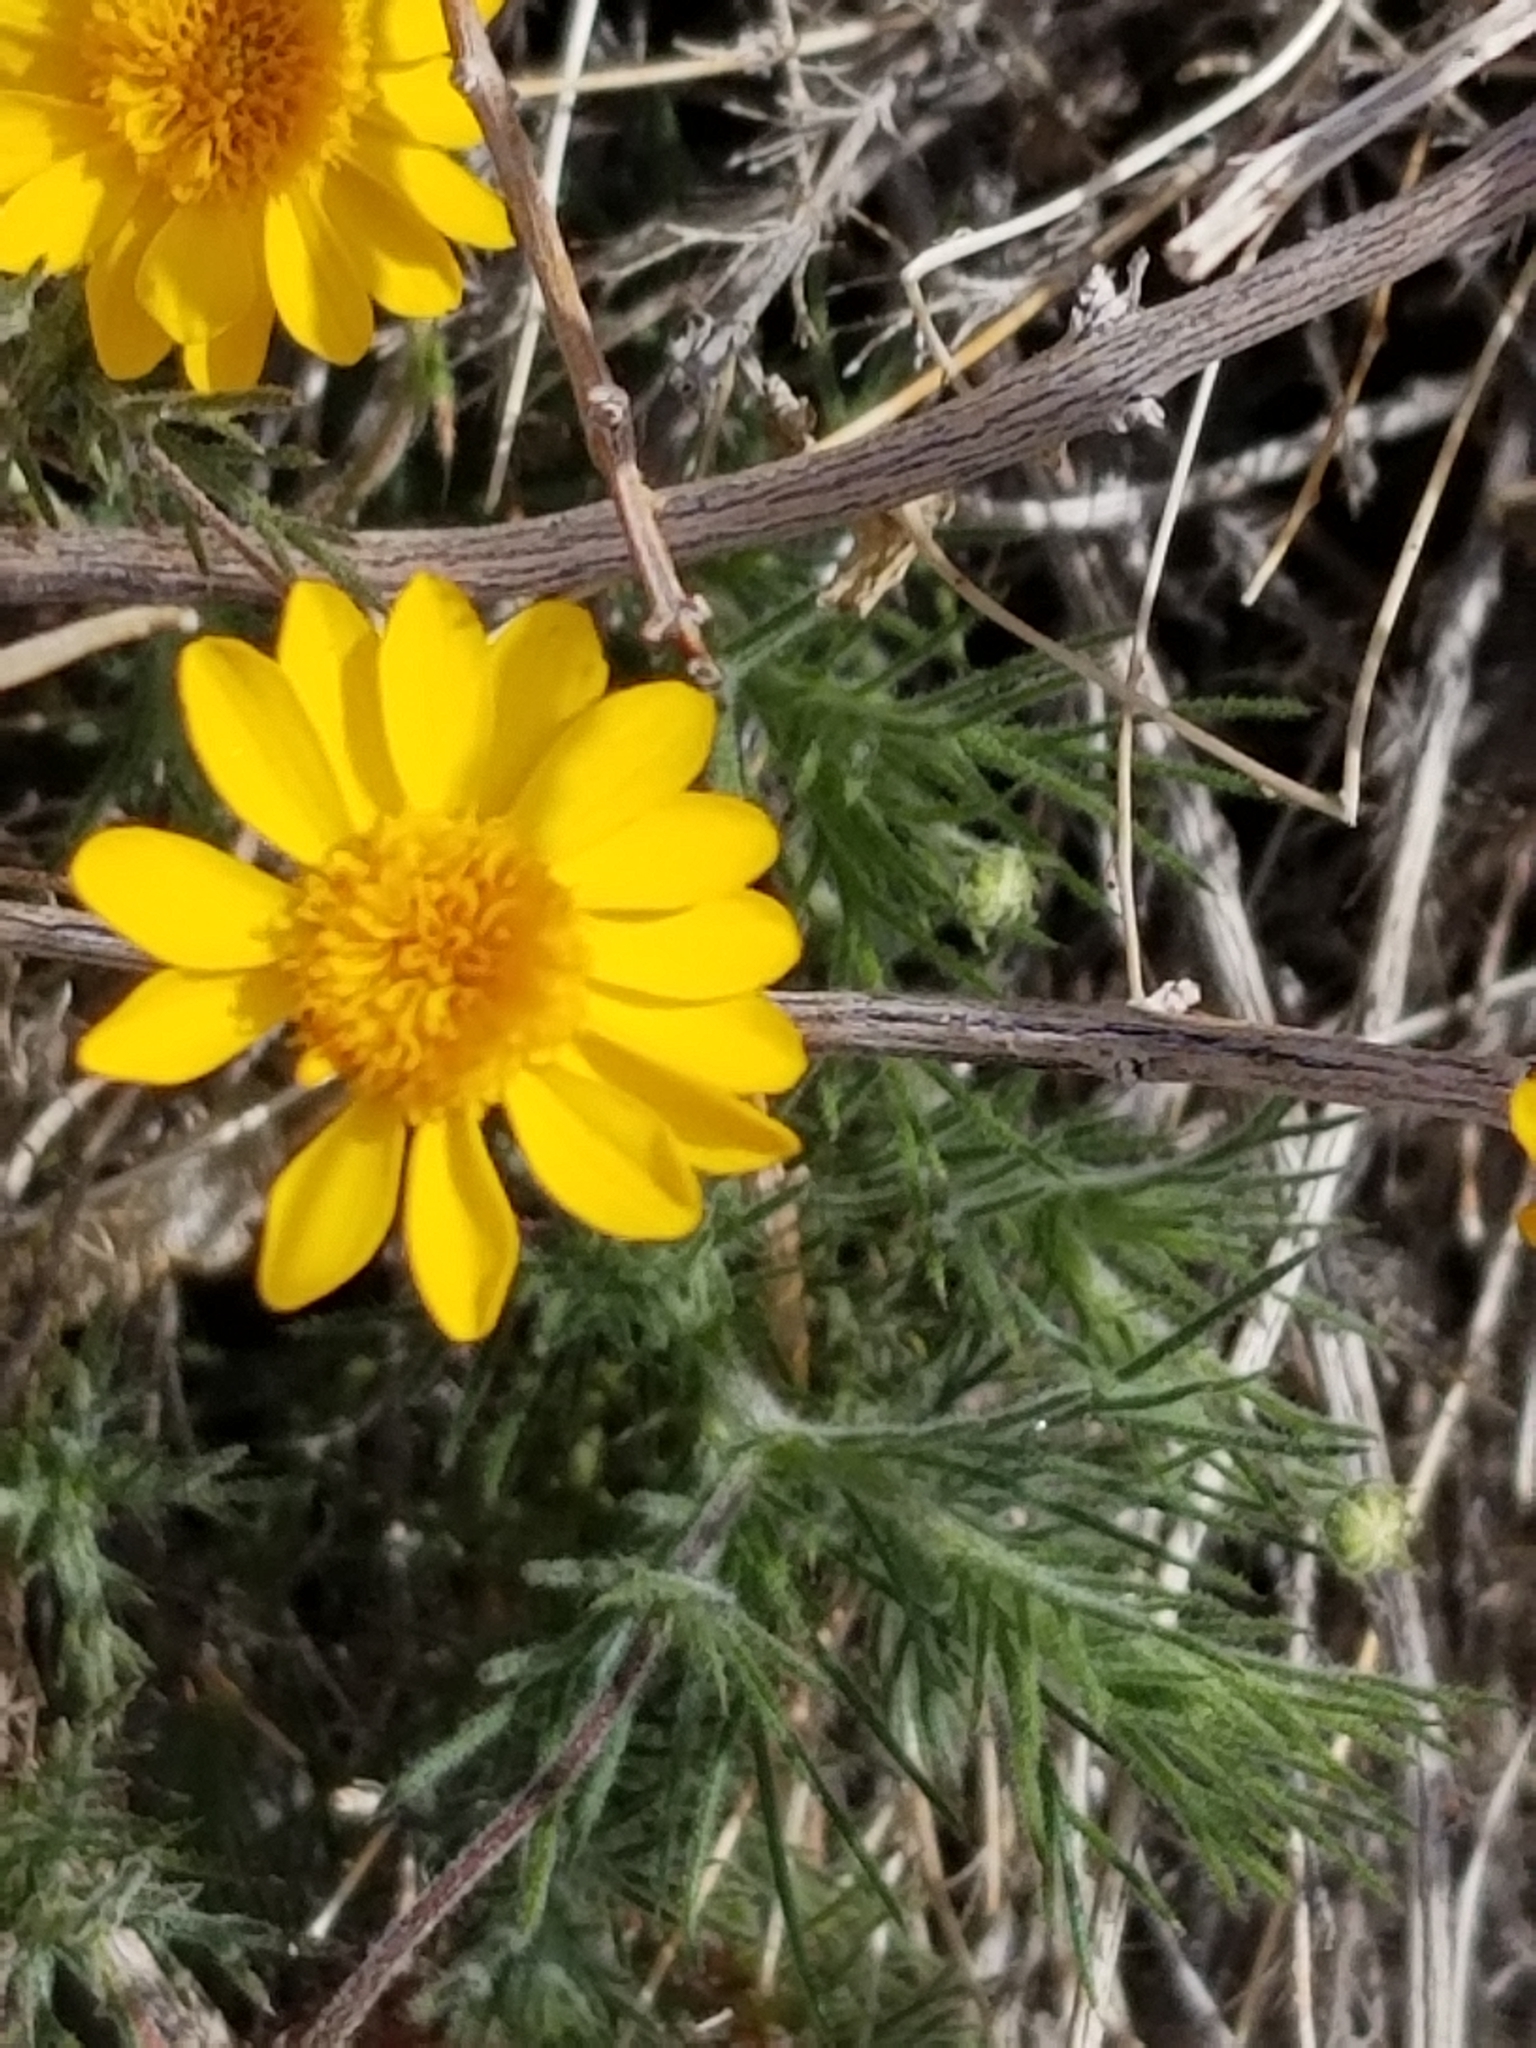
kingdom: Plantae
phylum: Tracheophyta
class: Magnoliopsida
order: Asterales
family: Asteraceae
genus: Thymophylla
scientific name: Thymophylla pentachaeta
